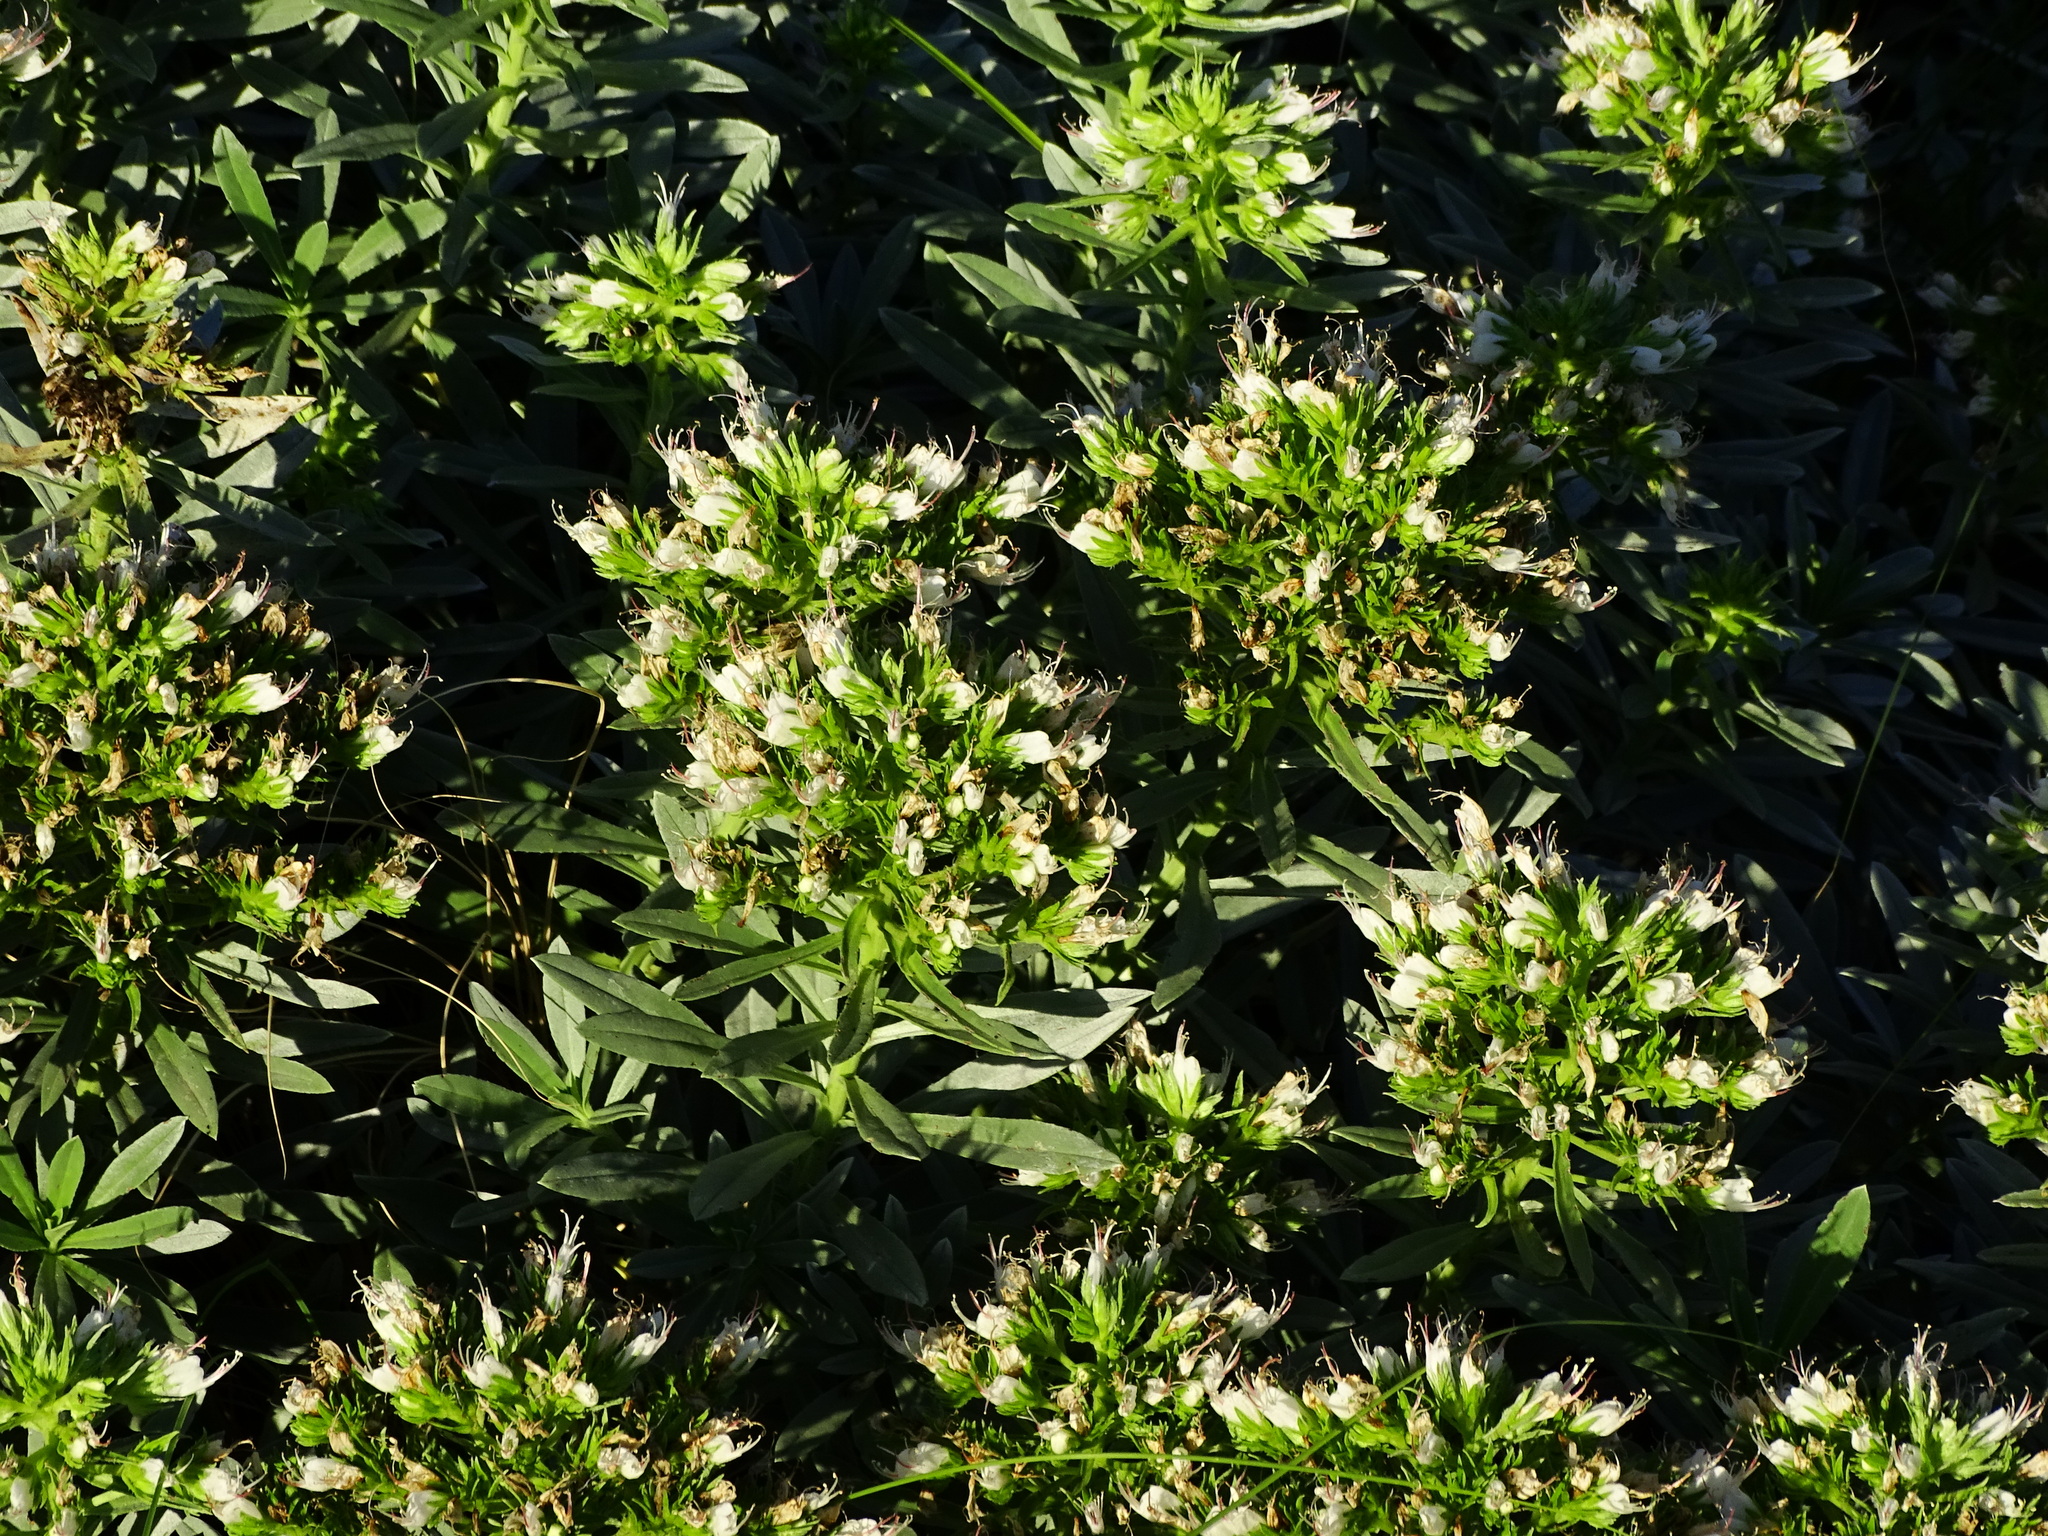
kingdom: Plantae
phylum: Tracheophyta
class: Magnoliopsida
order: Boraginales
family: Boraginaceae
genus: Echium
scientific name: Echium brevirame
